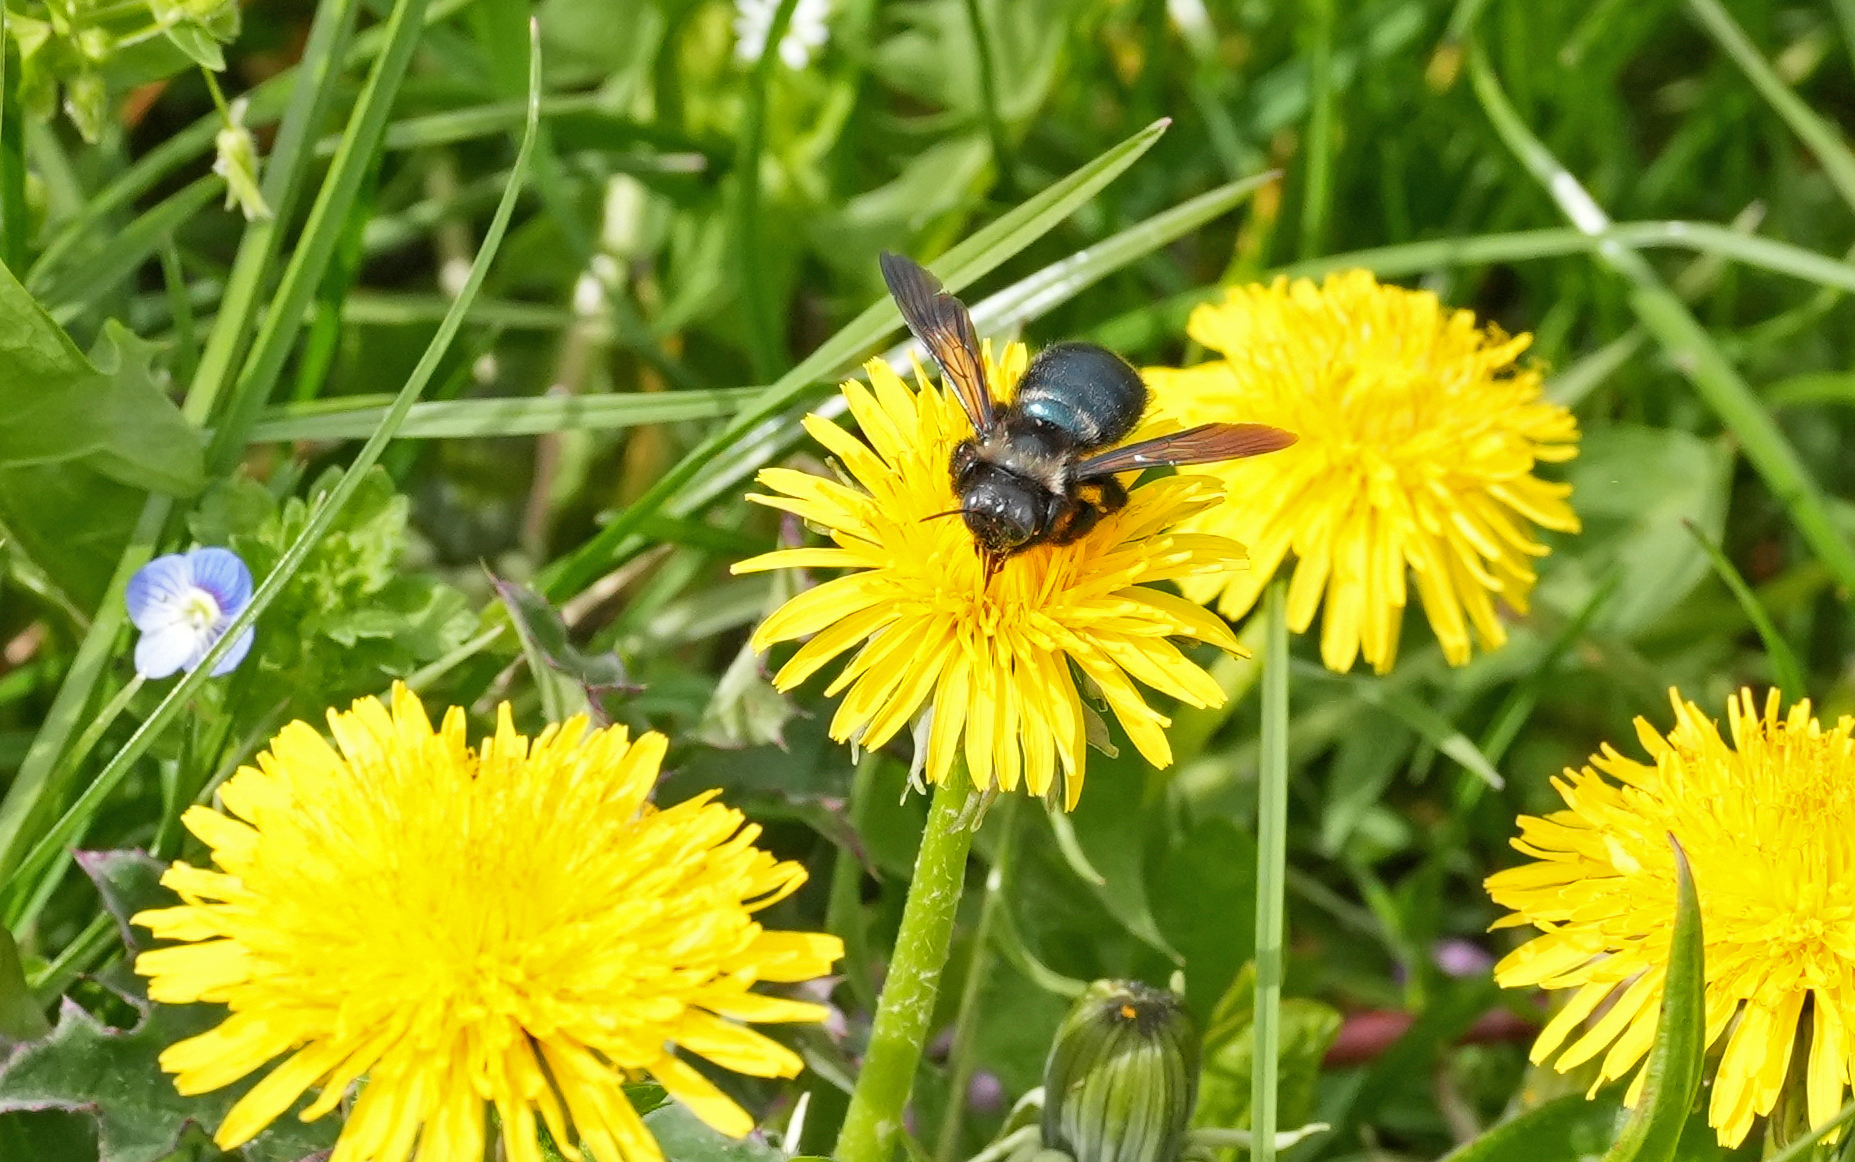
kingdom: Animalia
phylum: Arthropoda
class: Insecta
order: Hymenoptera
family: Apidae
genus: Xylocopa
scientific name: Xylocopa iris
